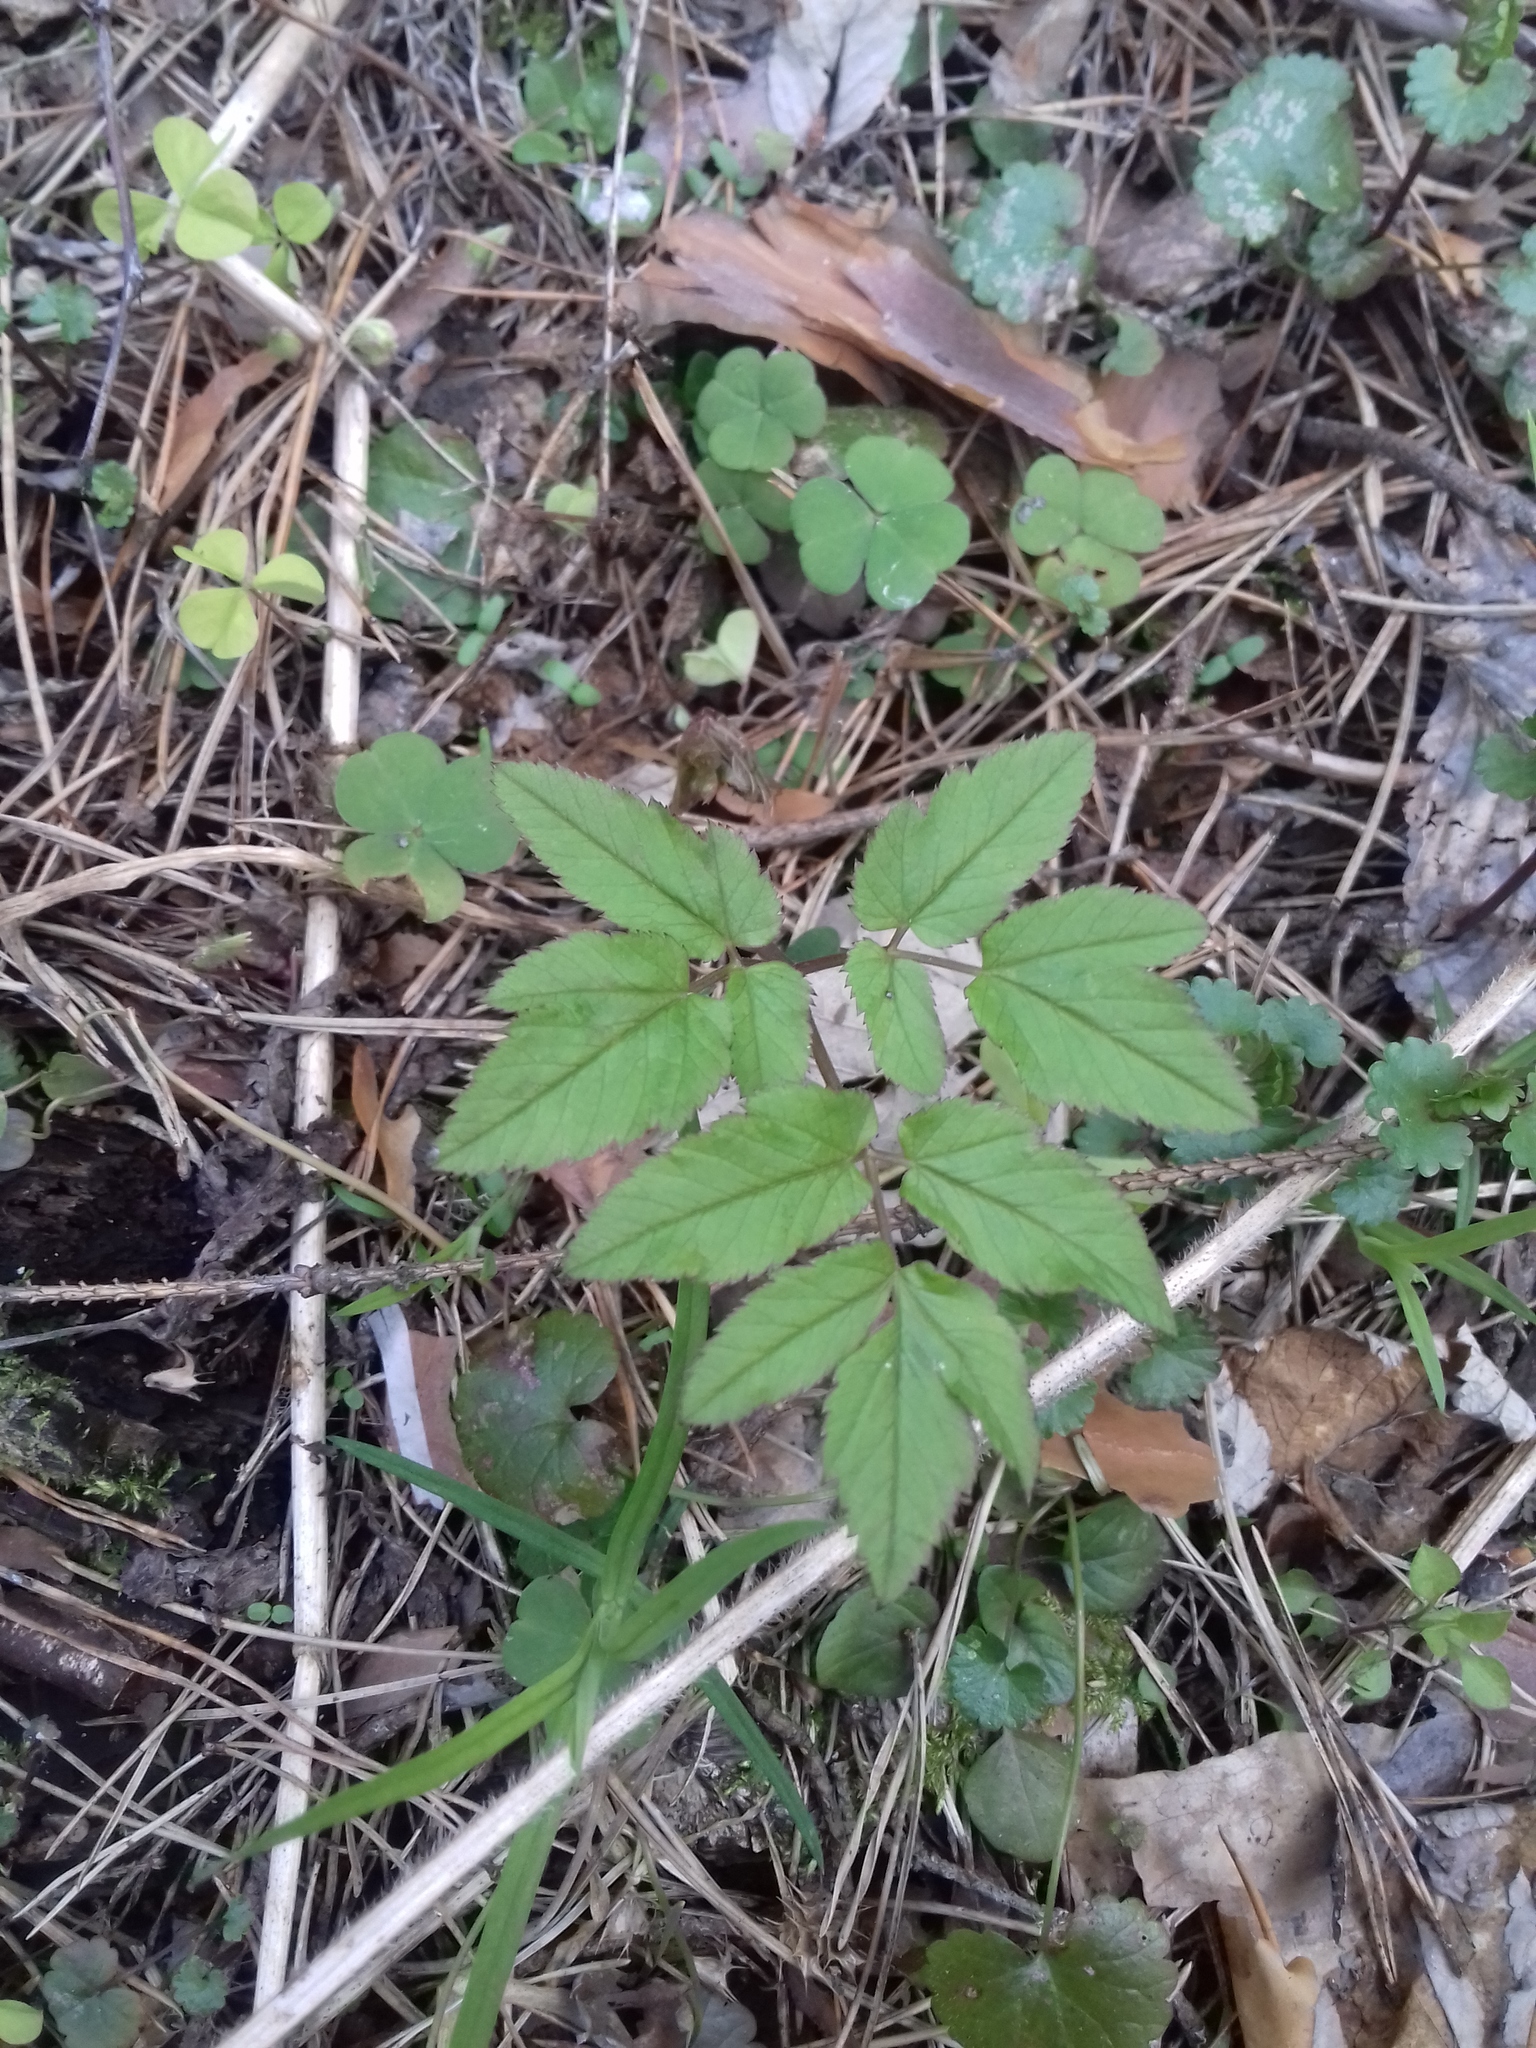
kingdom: Plantae
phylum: Tracheophyta
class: Magnoliopsida
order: Apiales
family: Apiaceae
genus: Aegopodium
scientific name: Aegopodium podagraria
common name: Ground-elder
